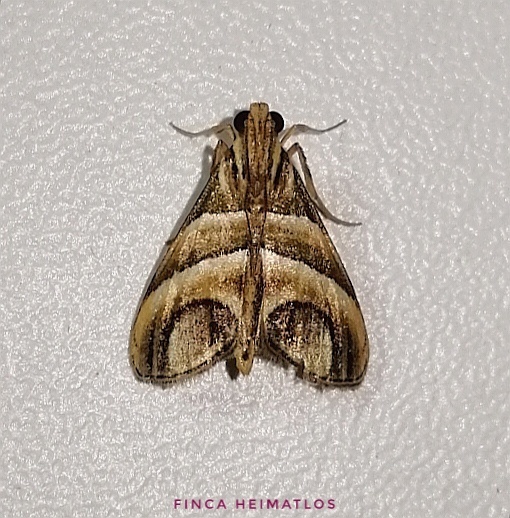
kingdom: Animalia
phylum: Arthropoda
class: Insecta
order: Lepidoptera
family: Pyralidae
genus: Incarcha
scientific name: Incarcha argentilinea
